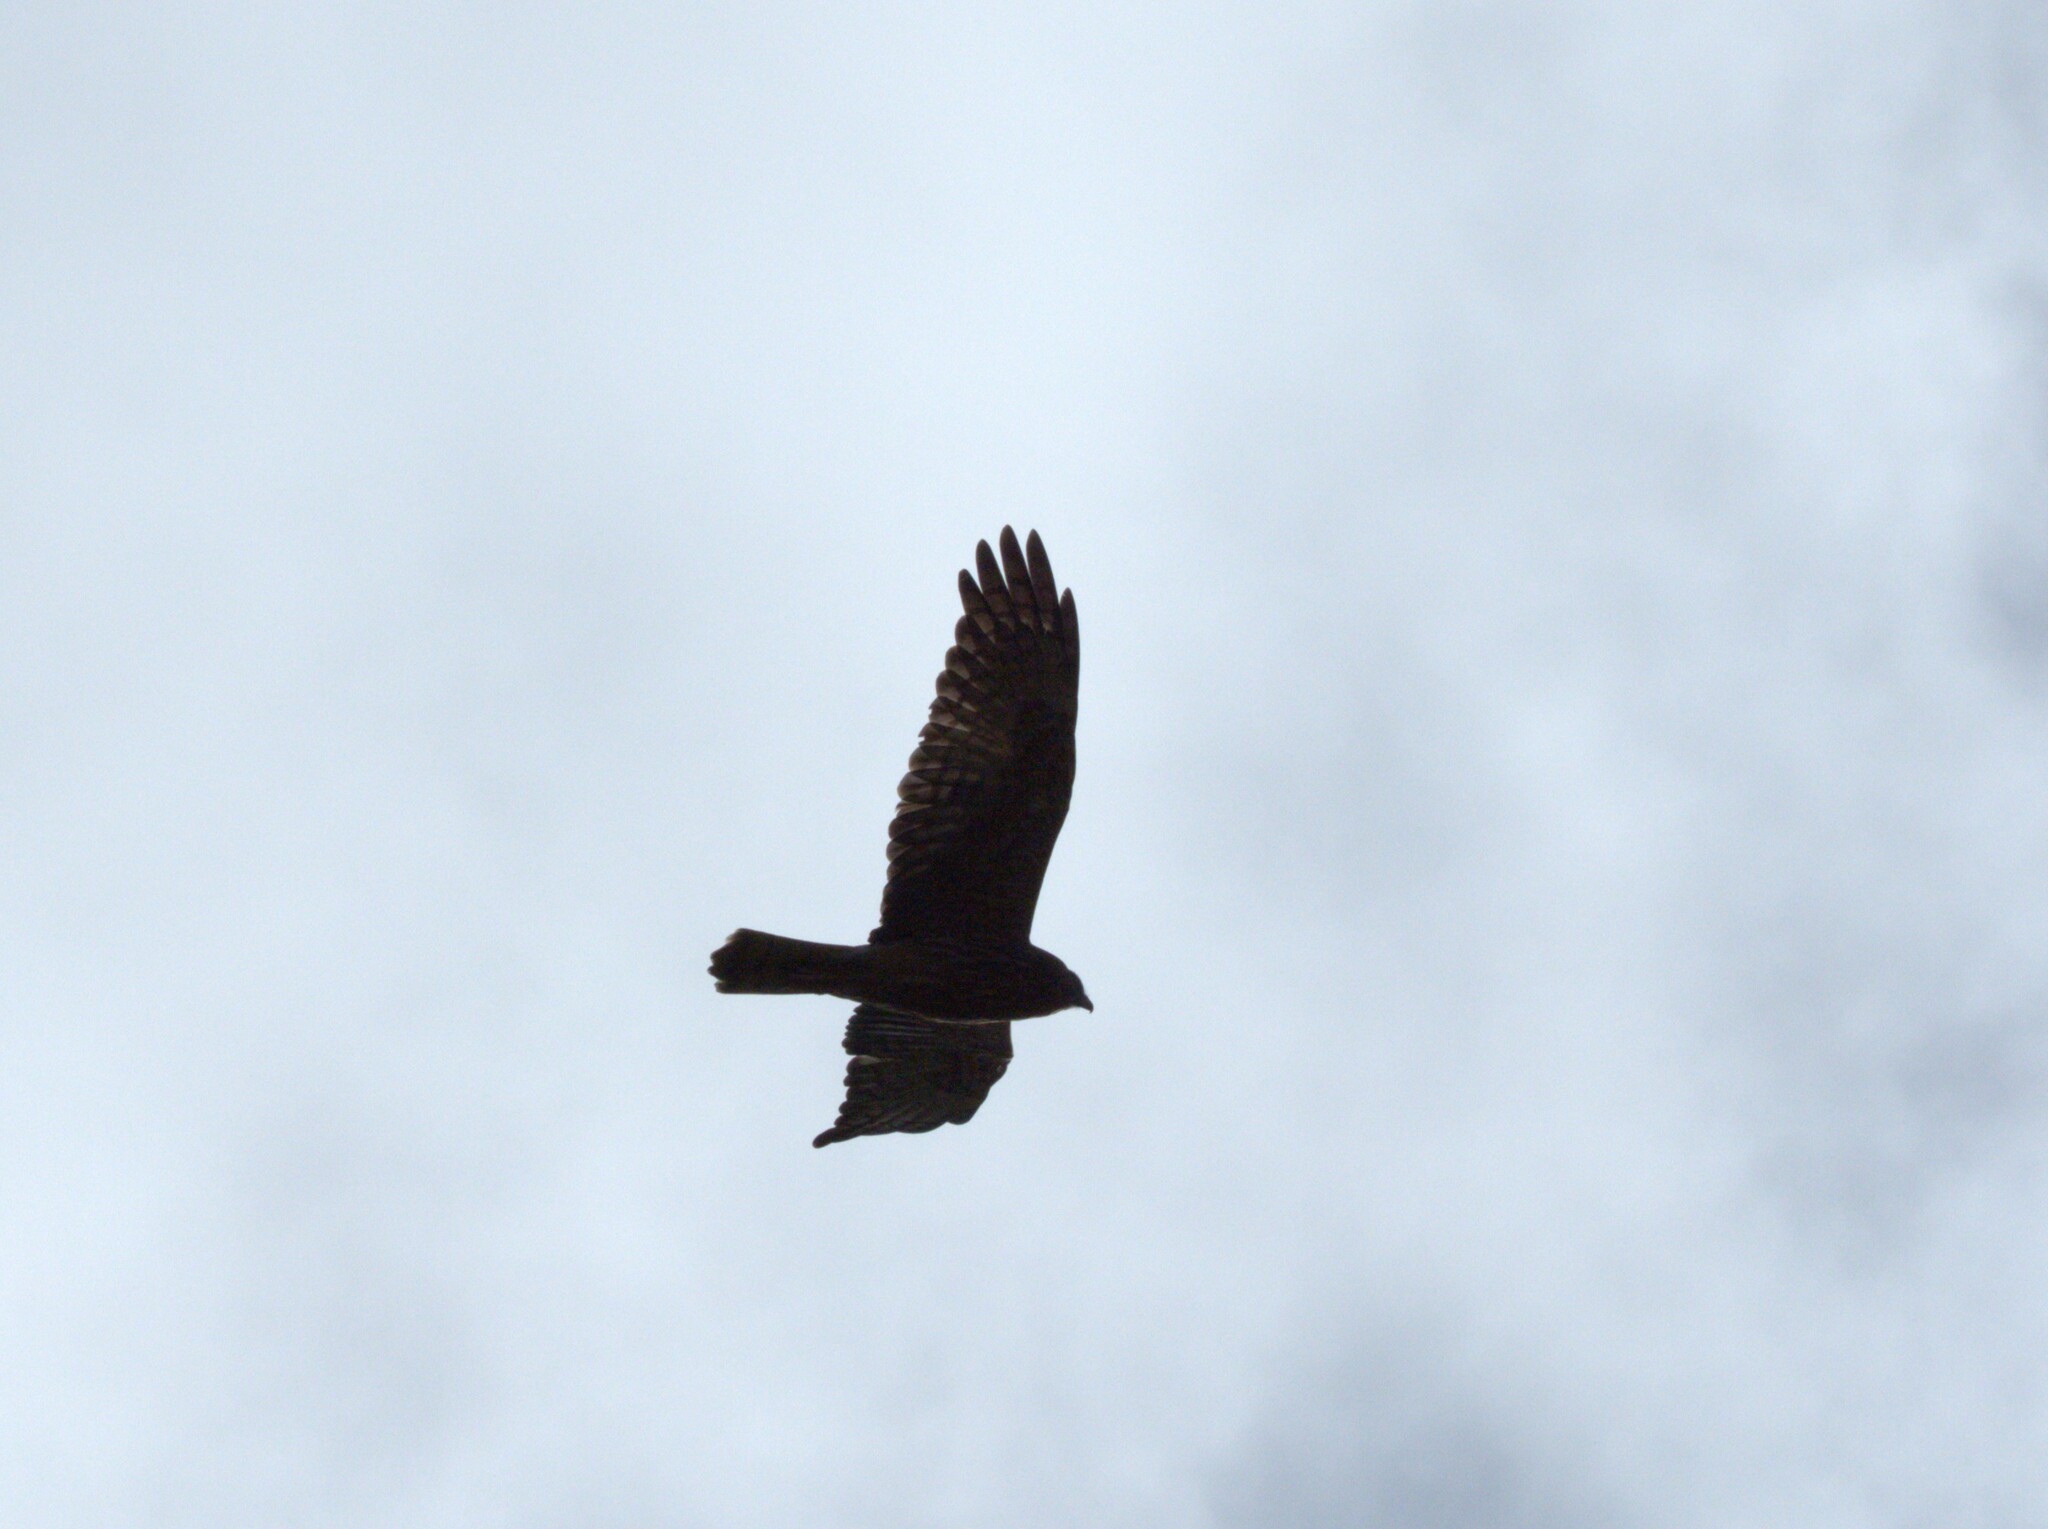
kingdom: Animalia
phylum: Chordata
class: Aves
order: Accipitriformes
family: Accipitridae
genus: Circus
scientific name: Circus approximans
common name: Swamp harrier
